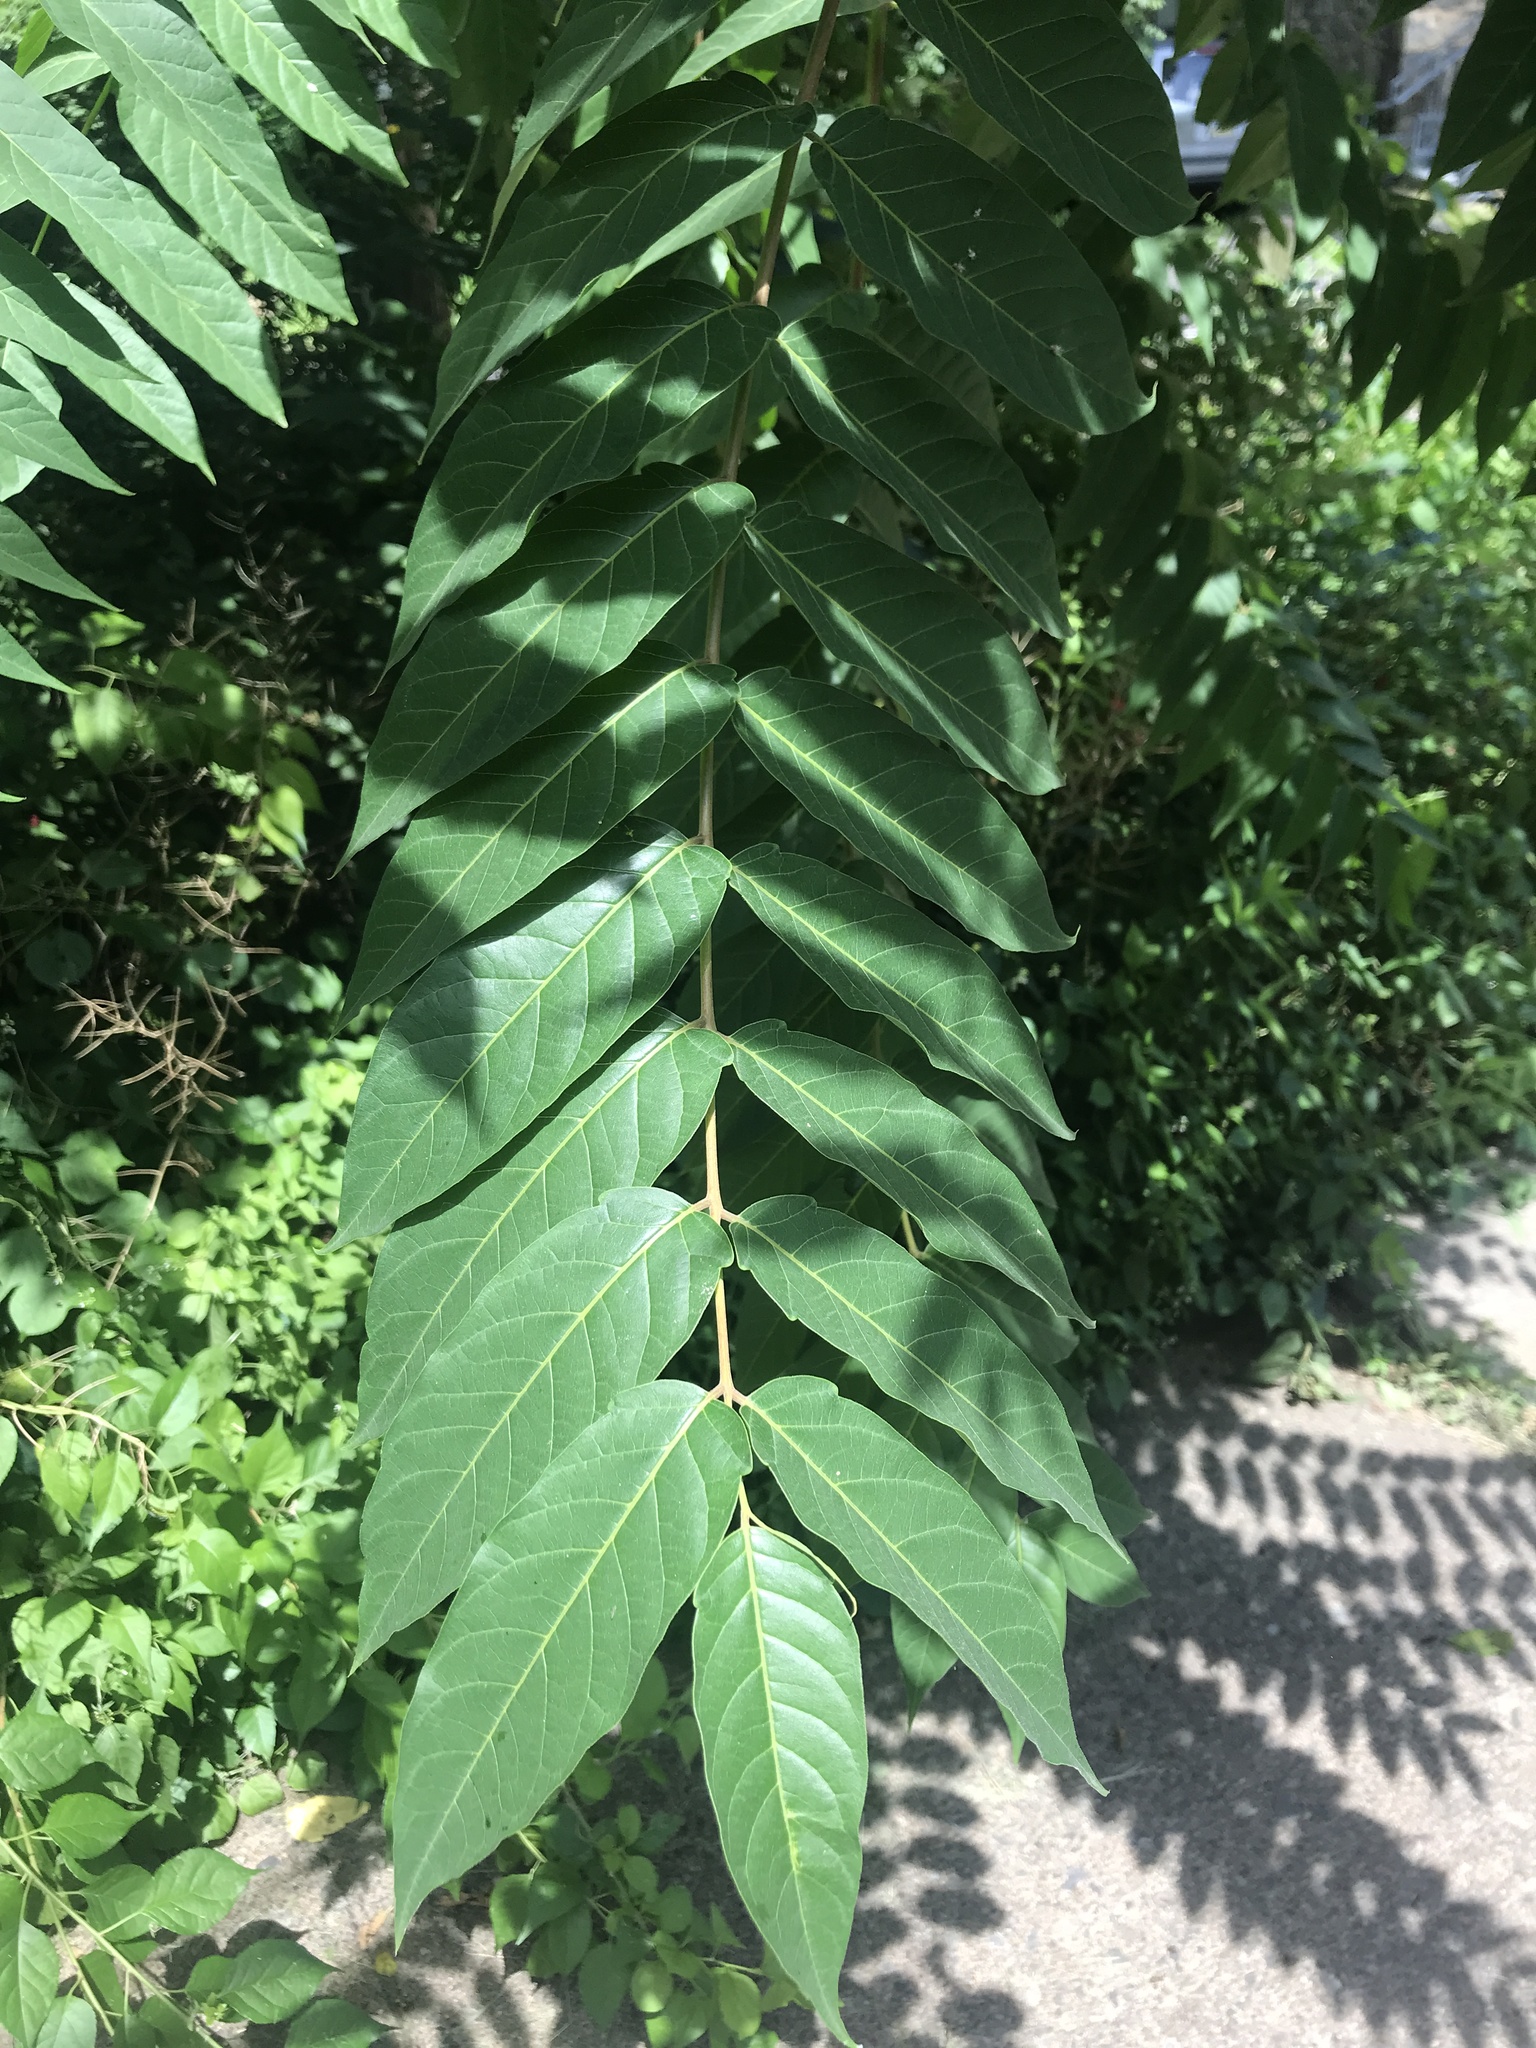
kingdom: Plantae
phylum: Tracheophyta
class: Magnoliopsida
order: Sapindales
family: Simaroubaceae
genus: Ailanthus
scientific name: Ailanthus altissima
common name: Tree-of-heaven
